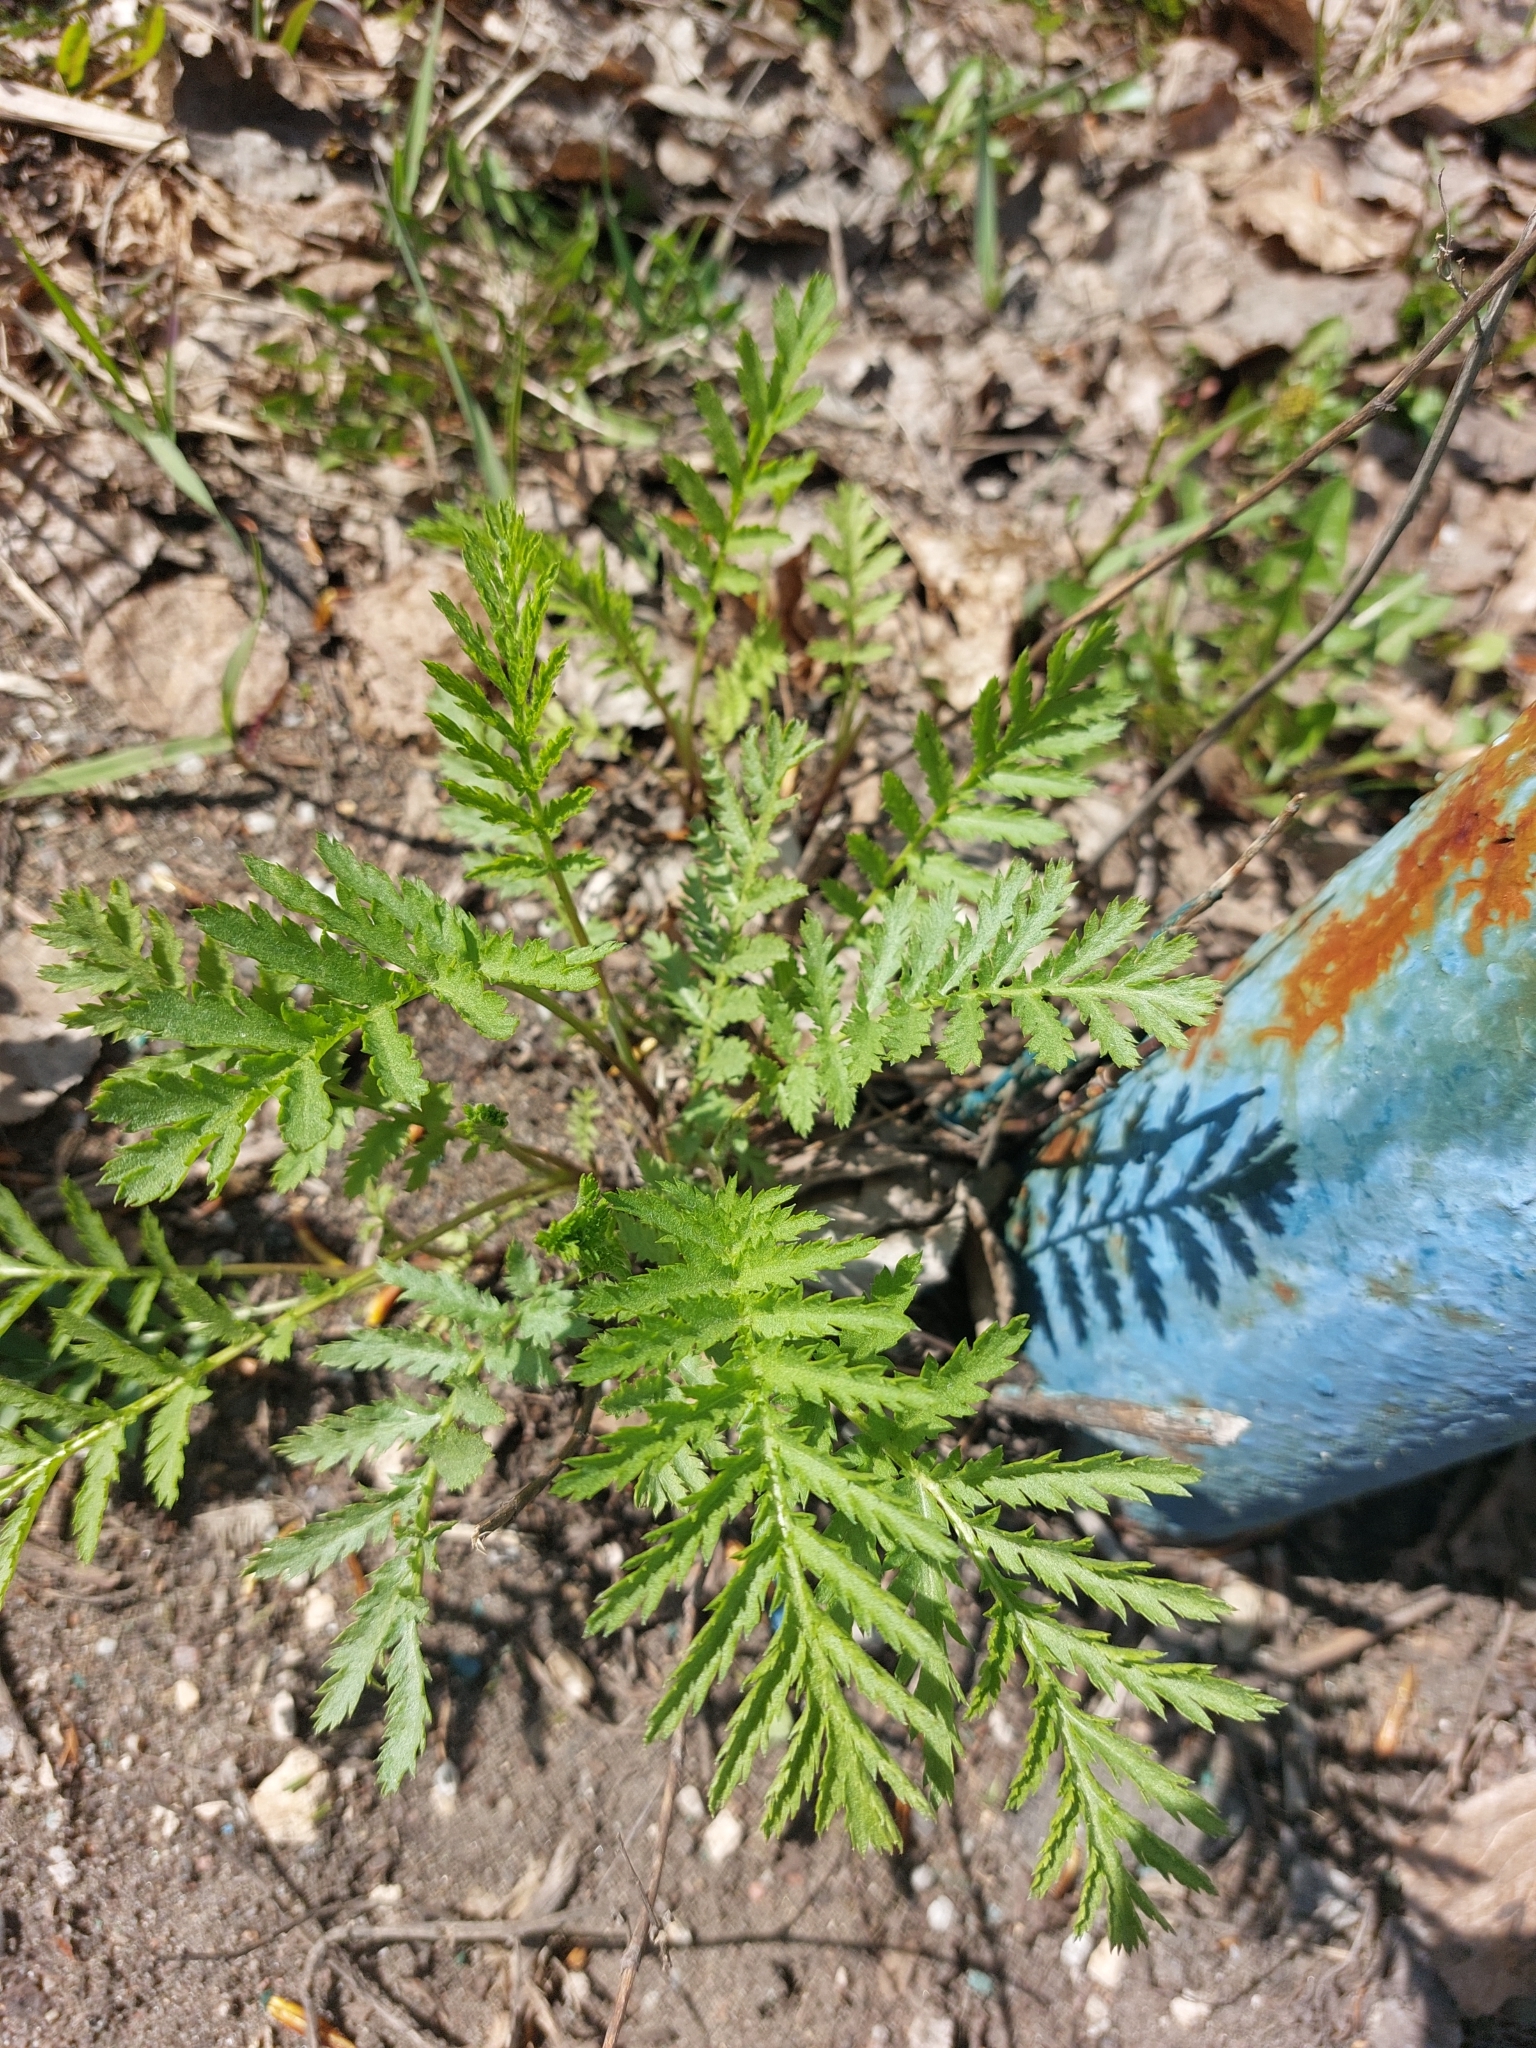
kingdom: Plantae
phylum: Tracheophyta
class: Magnoliopsida
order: Asterales
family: Asteraceae
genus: Tanacetum
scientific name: Tanacetum vulgare
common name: Common tansy
